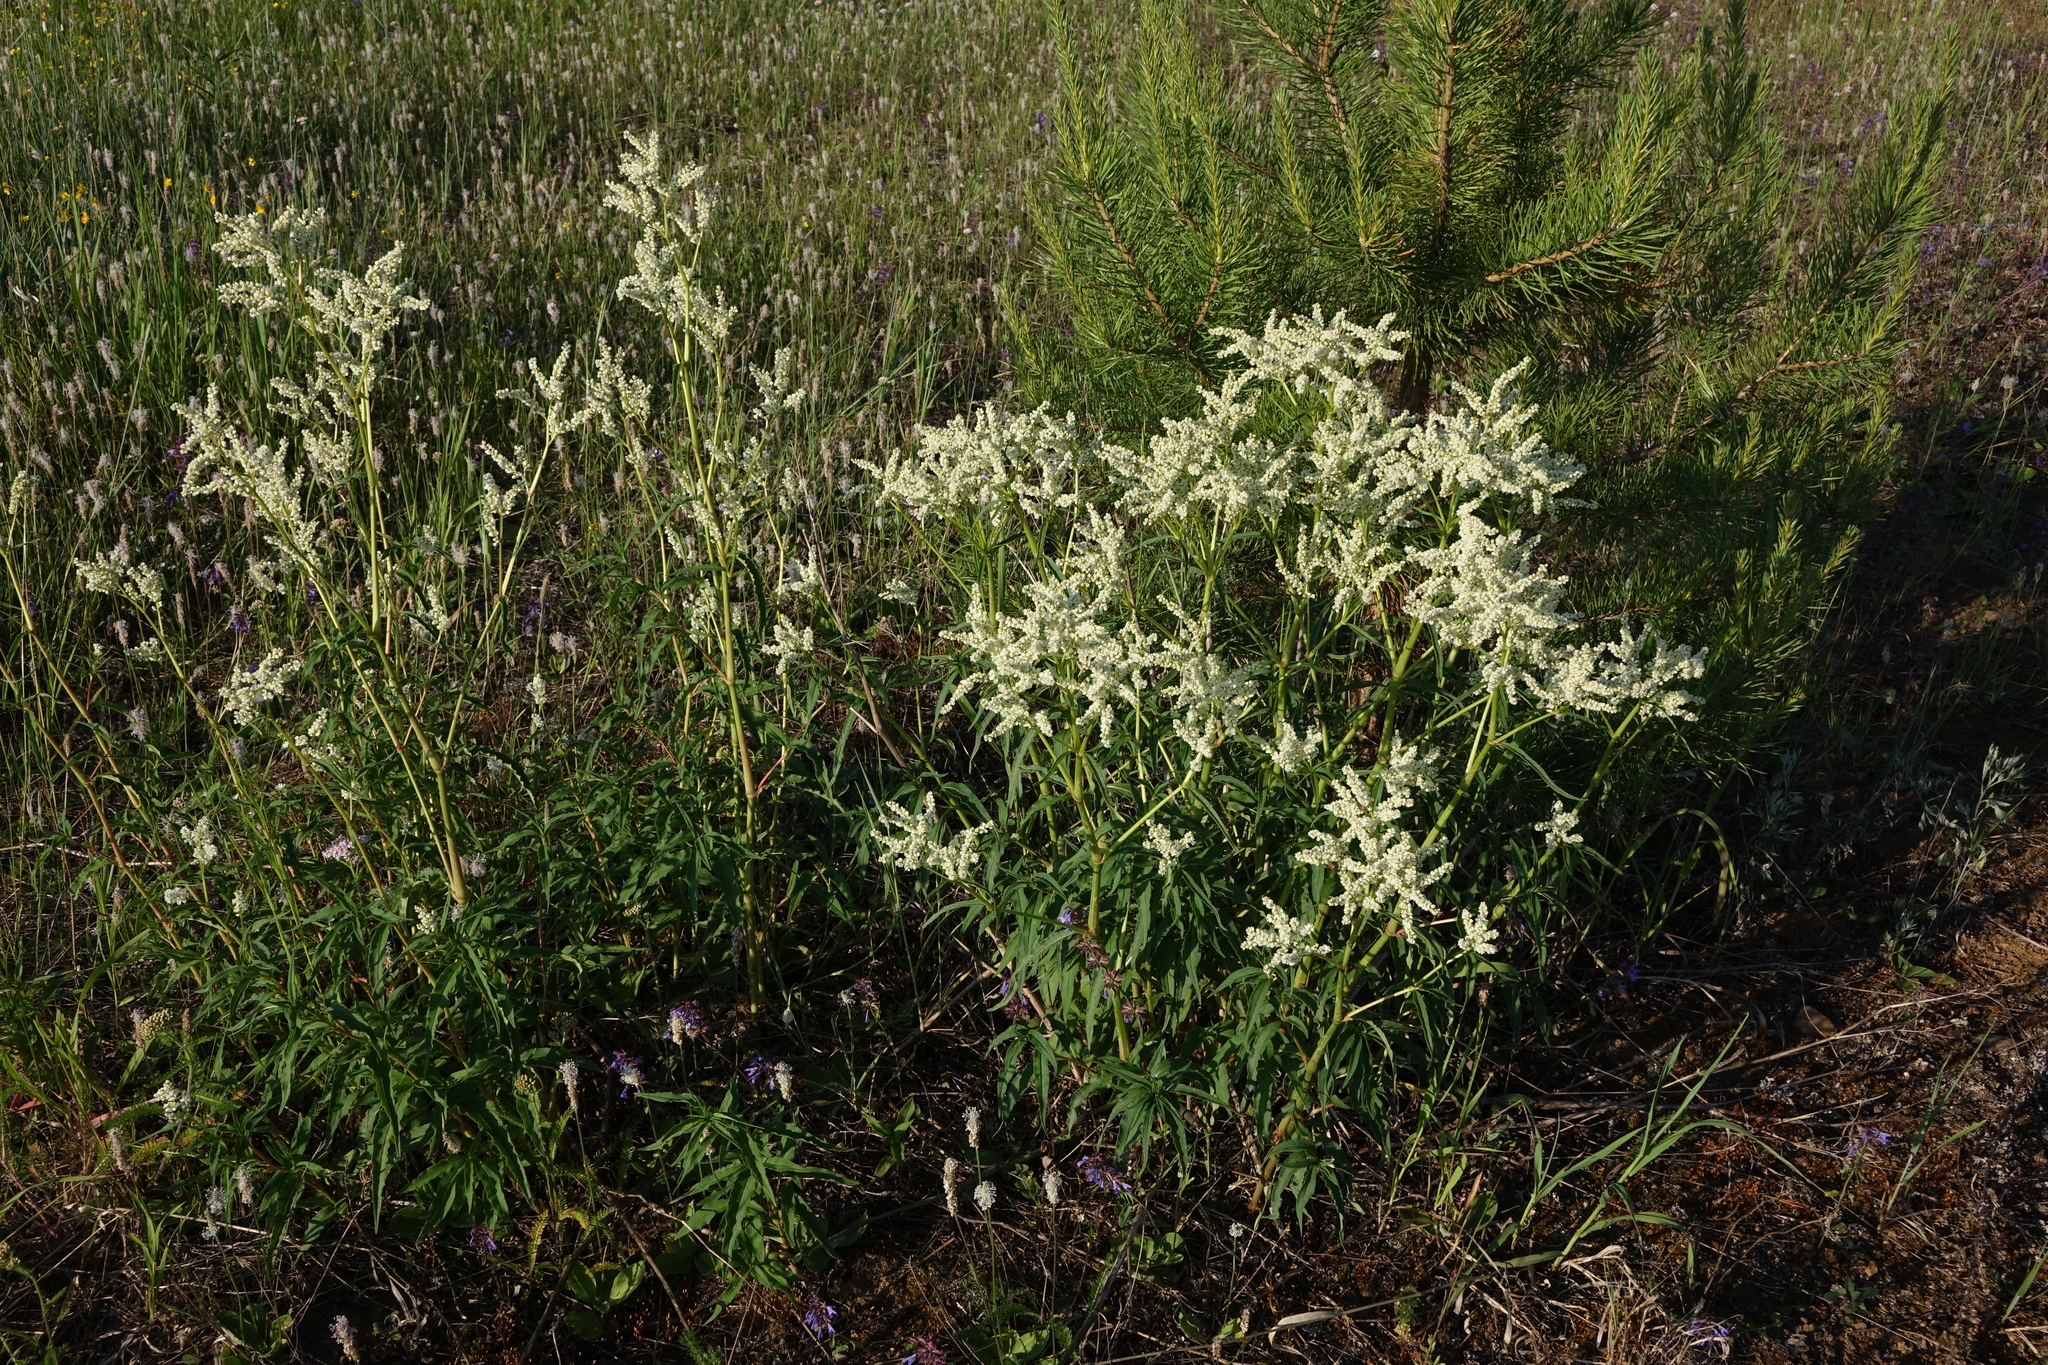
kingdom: Plantae
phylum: Tracheophyta
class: Magnoliopsida
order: Caryophyllales
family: Polygonaceae
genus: Koenigia
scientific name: Koenigia alpina
